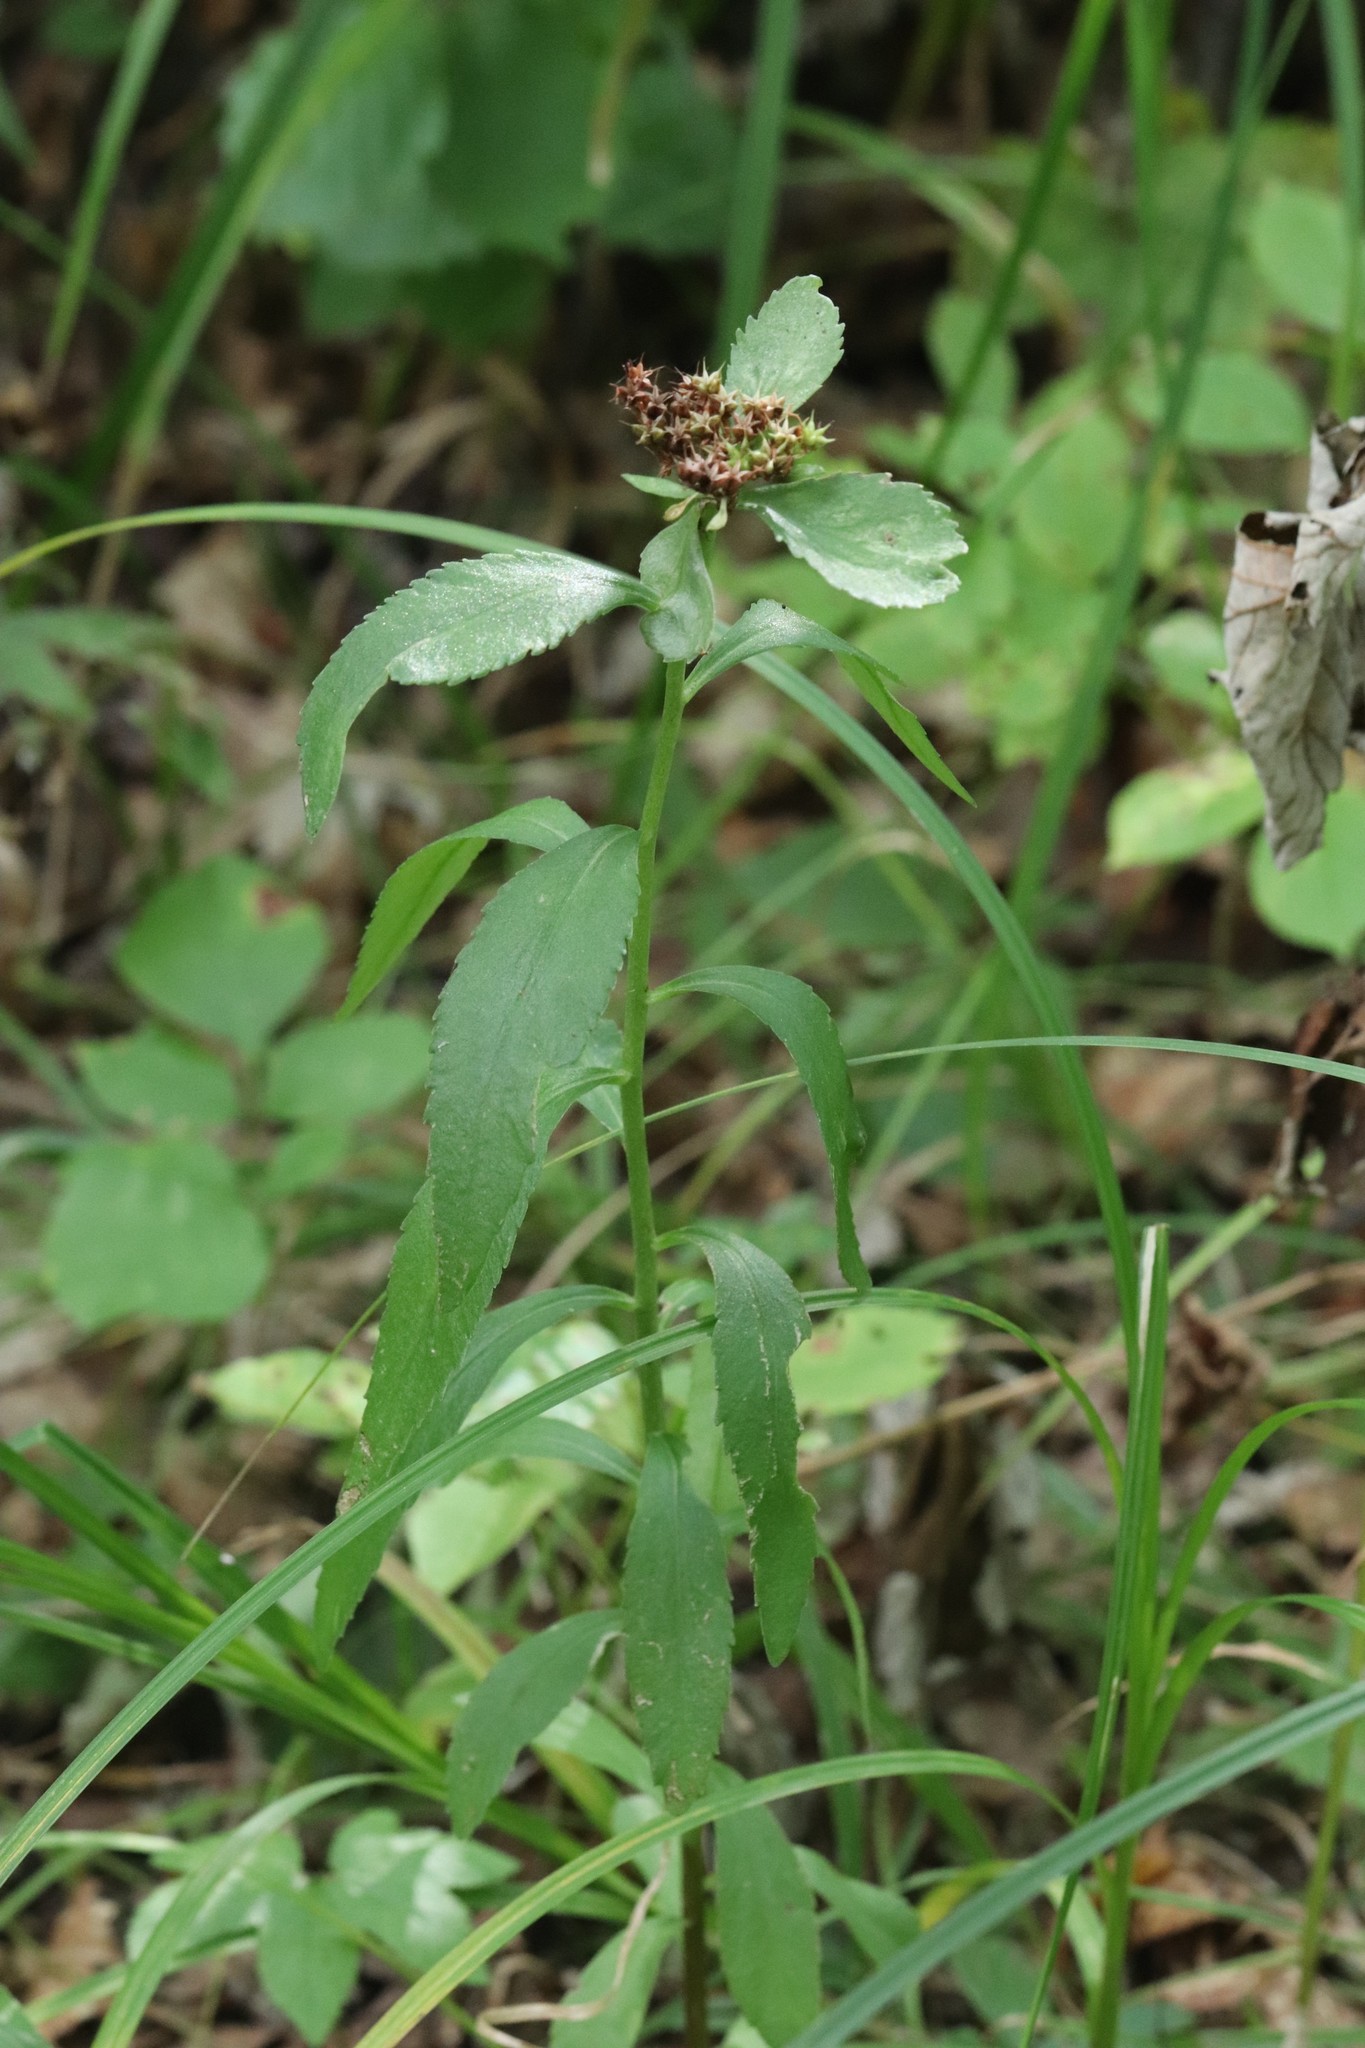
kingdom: Plantae
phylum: Tracheophyta
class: Magnoliopsida
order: Saxifragales
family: Crassulaceae
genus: Phedimus
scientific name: Phedimus aizoon
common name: Orpin aizoon
